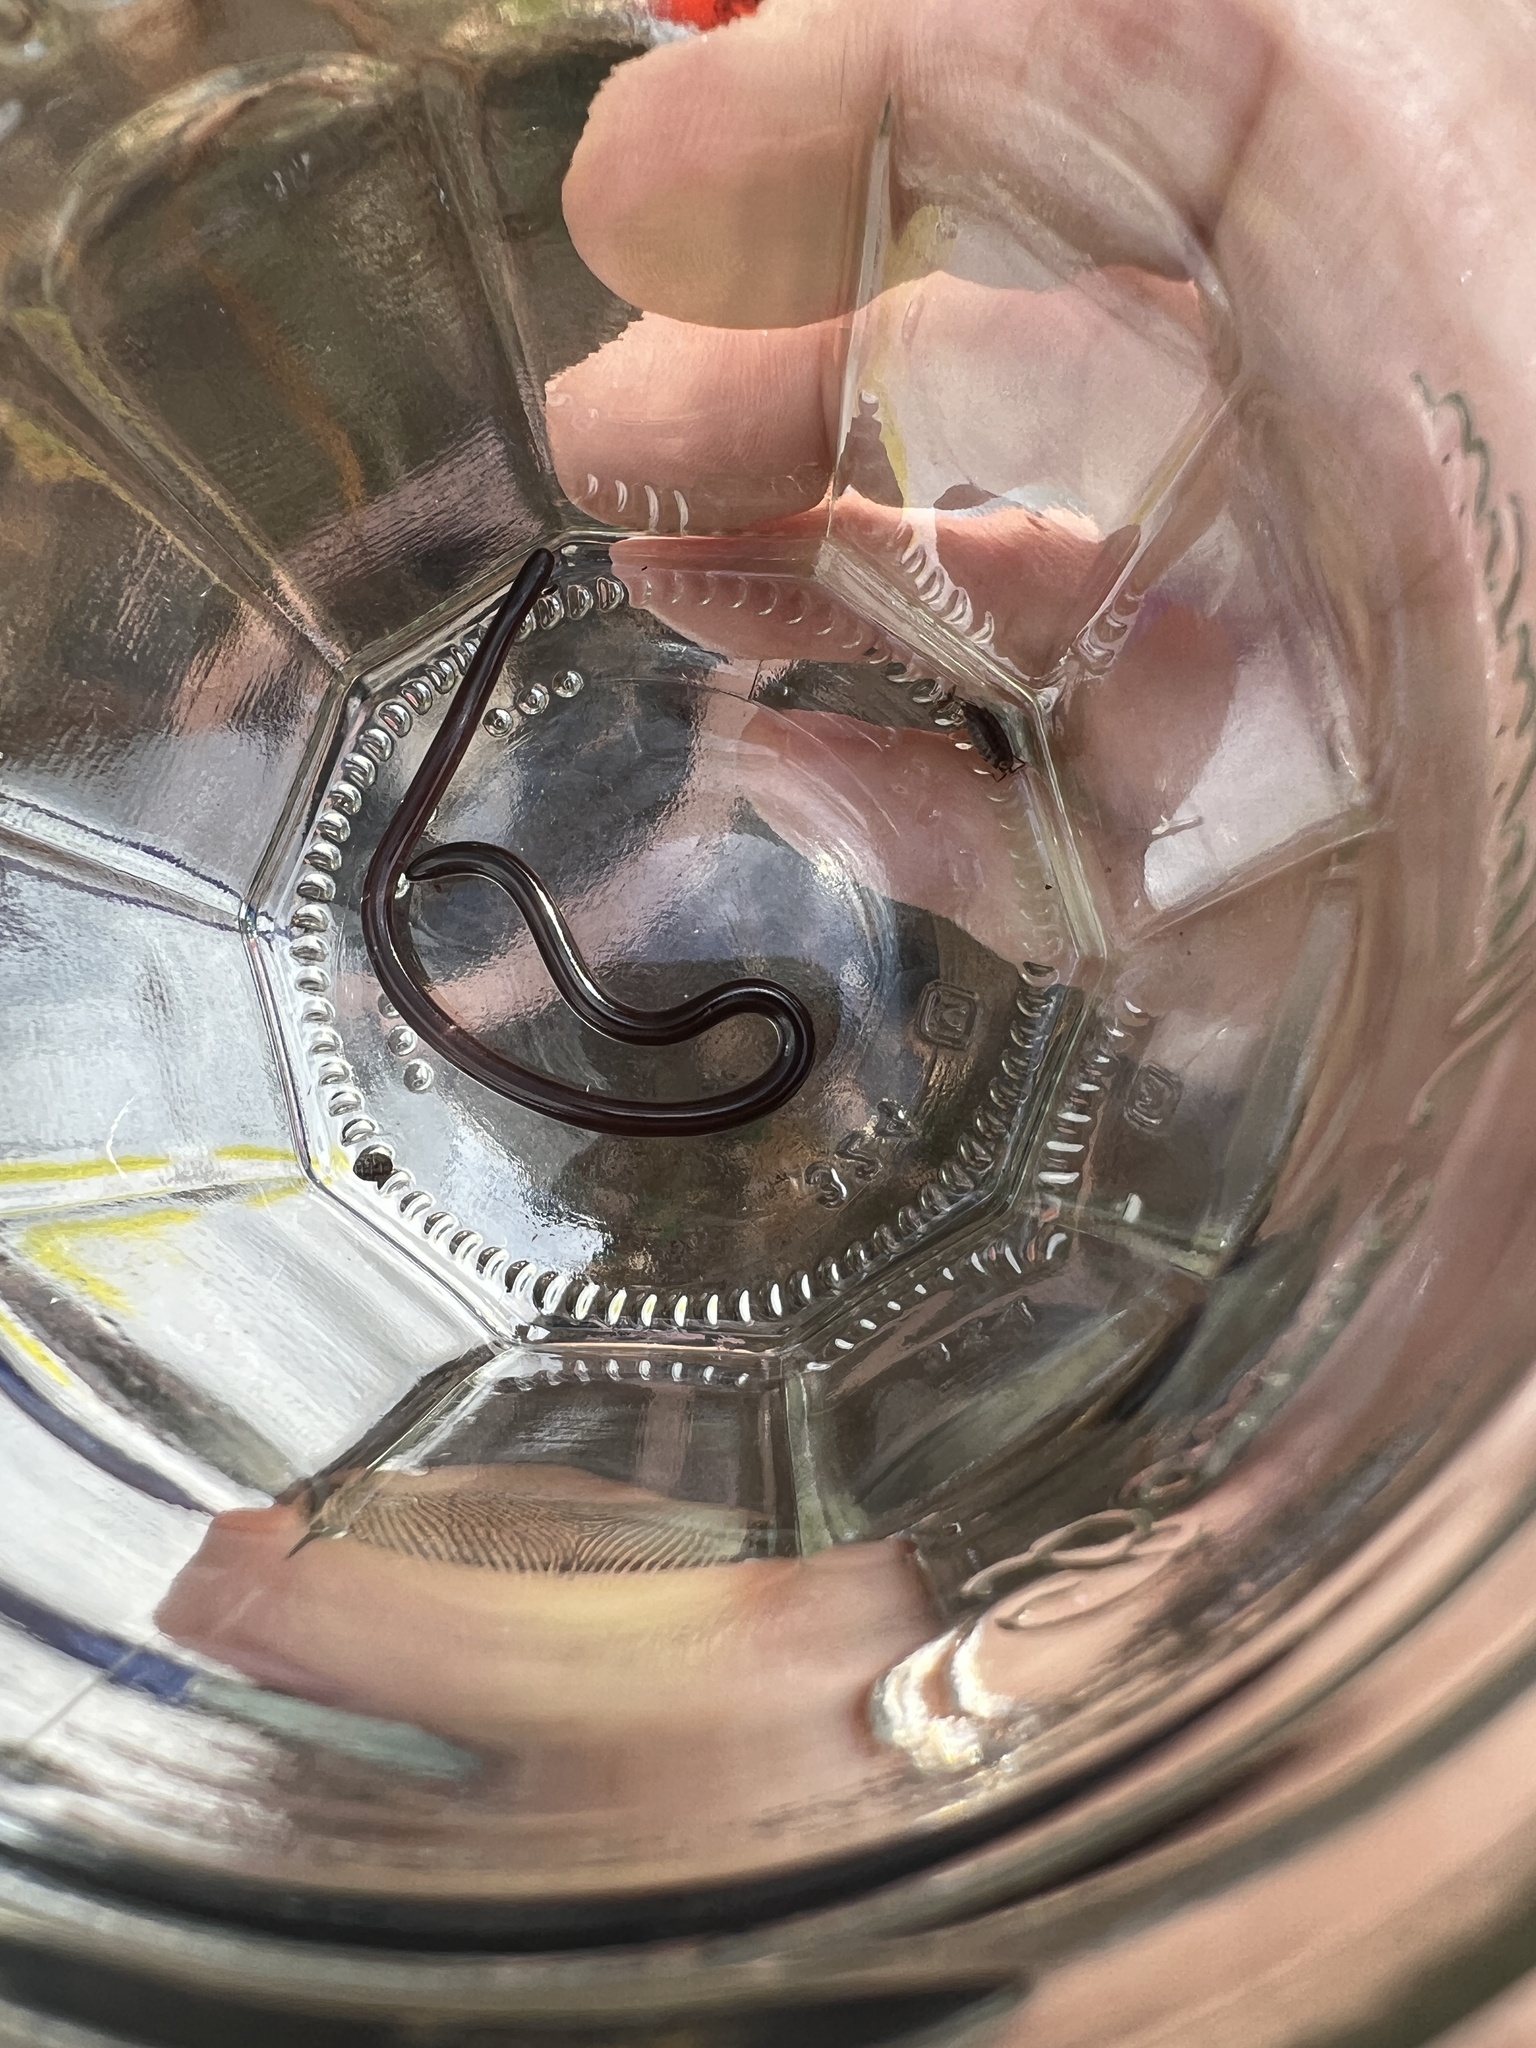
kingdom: Animalia
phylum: Chordata
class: Squamata
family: Typhlopidae
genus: Indotyphlops
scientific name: Indotyphlops braminus
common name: Brahminy blindsnake
